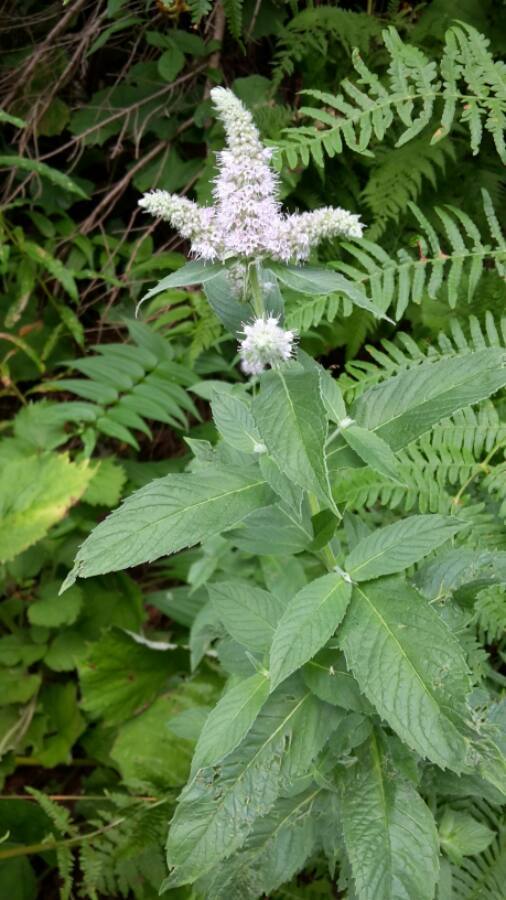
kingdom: Plantae
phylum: Tracheophyta
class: Magnoliopsida
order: Lamiales
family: Lamiaceae
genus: Mentha
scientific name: Mentha longifolia
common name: Horse mint
